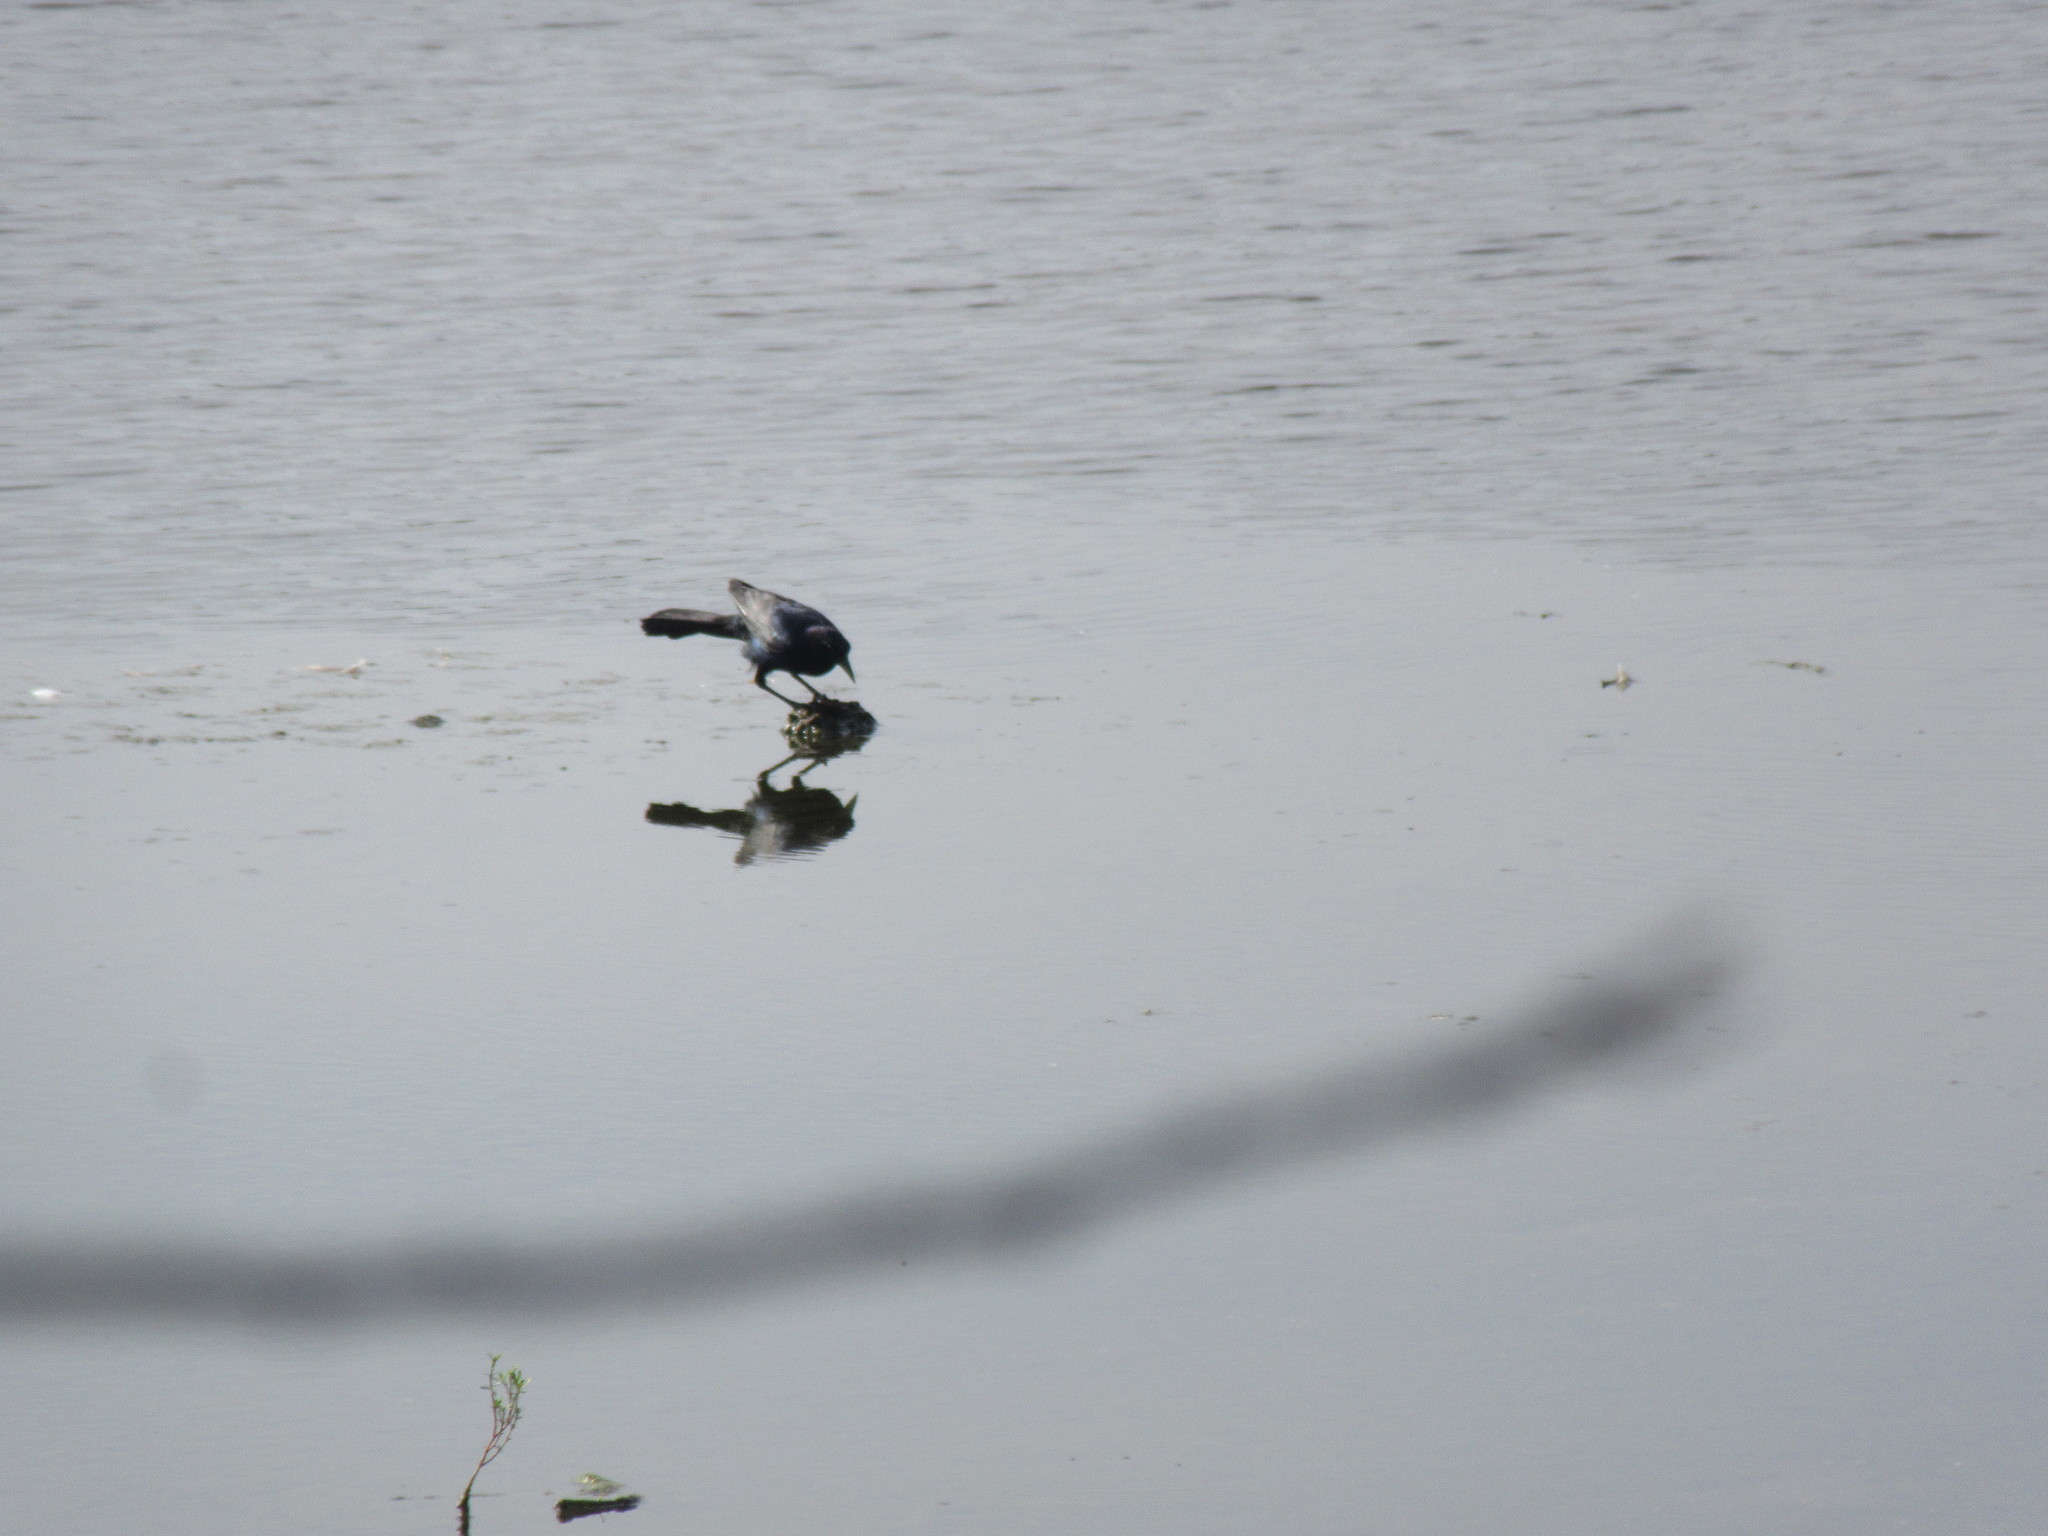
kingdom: Animalia
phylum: Chordata
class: Aves
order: Passeriformes
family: Icteridae
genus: Quiscalus
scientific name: Quiscalus major
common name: Boat-tailed grackle
